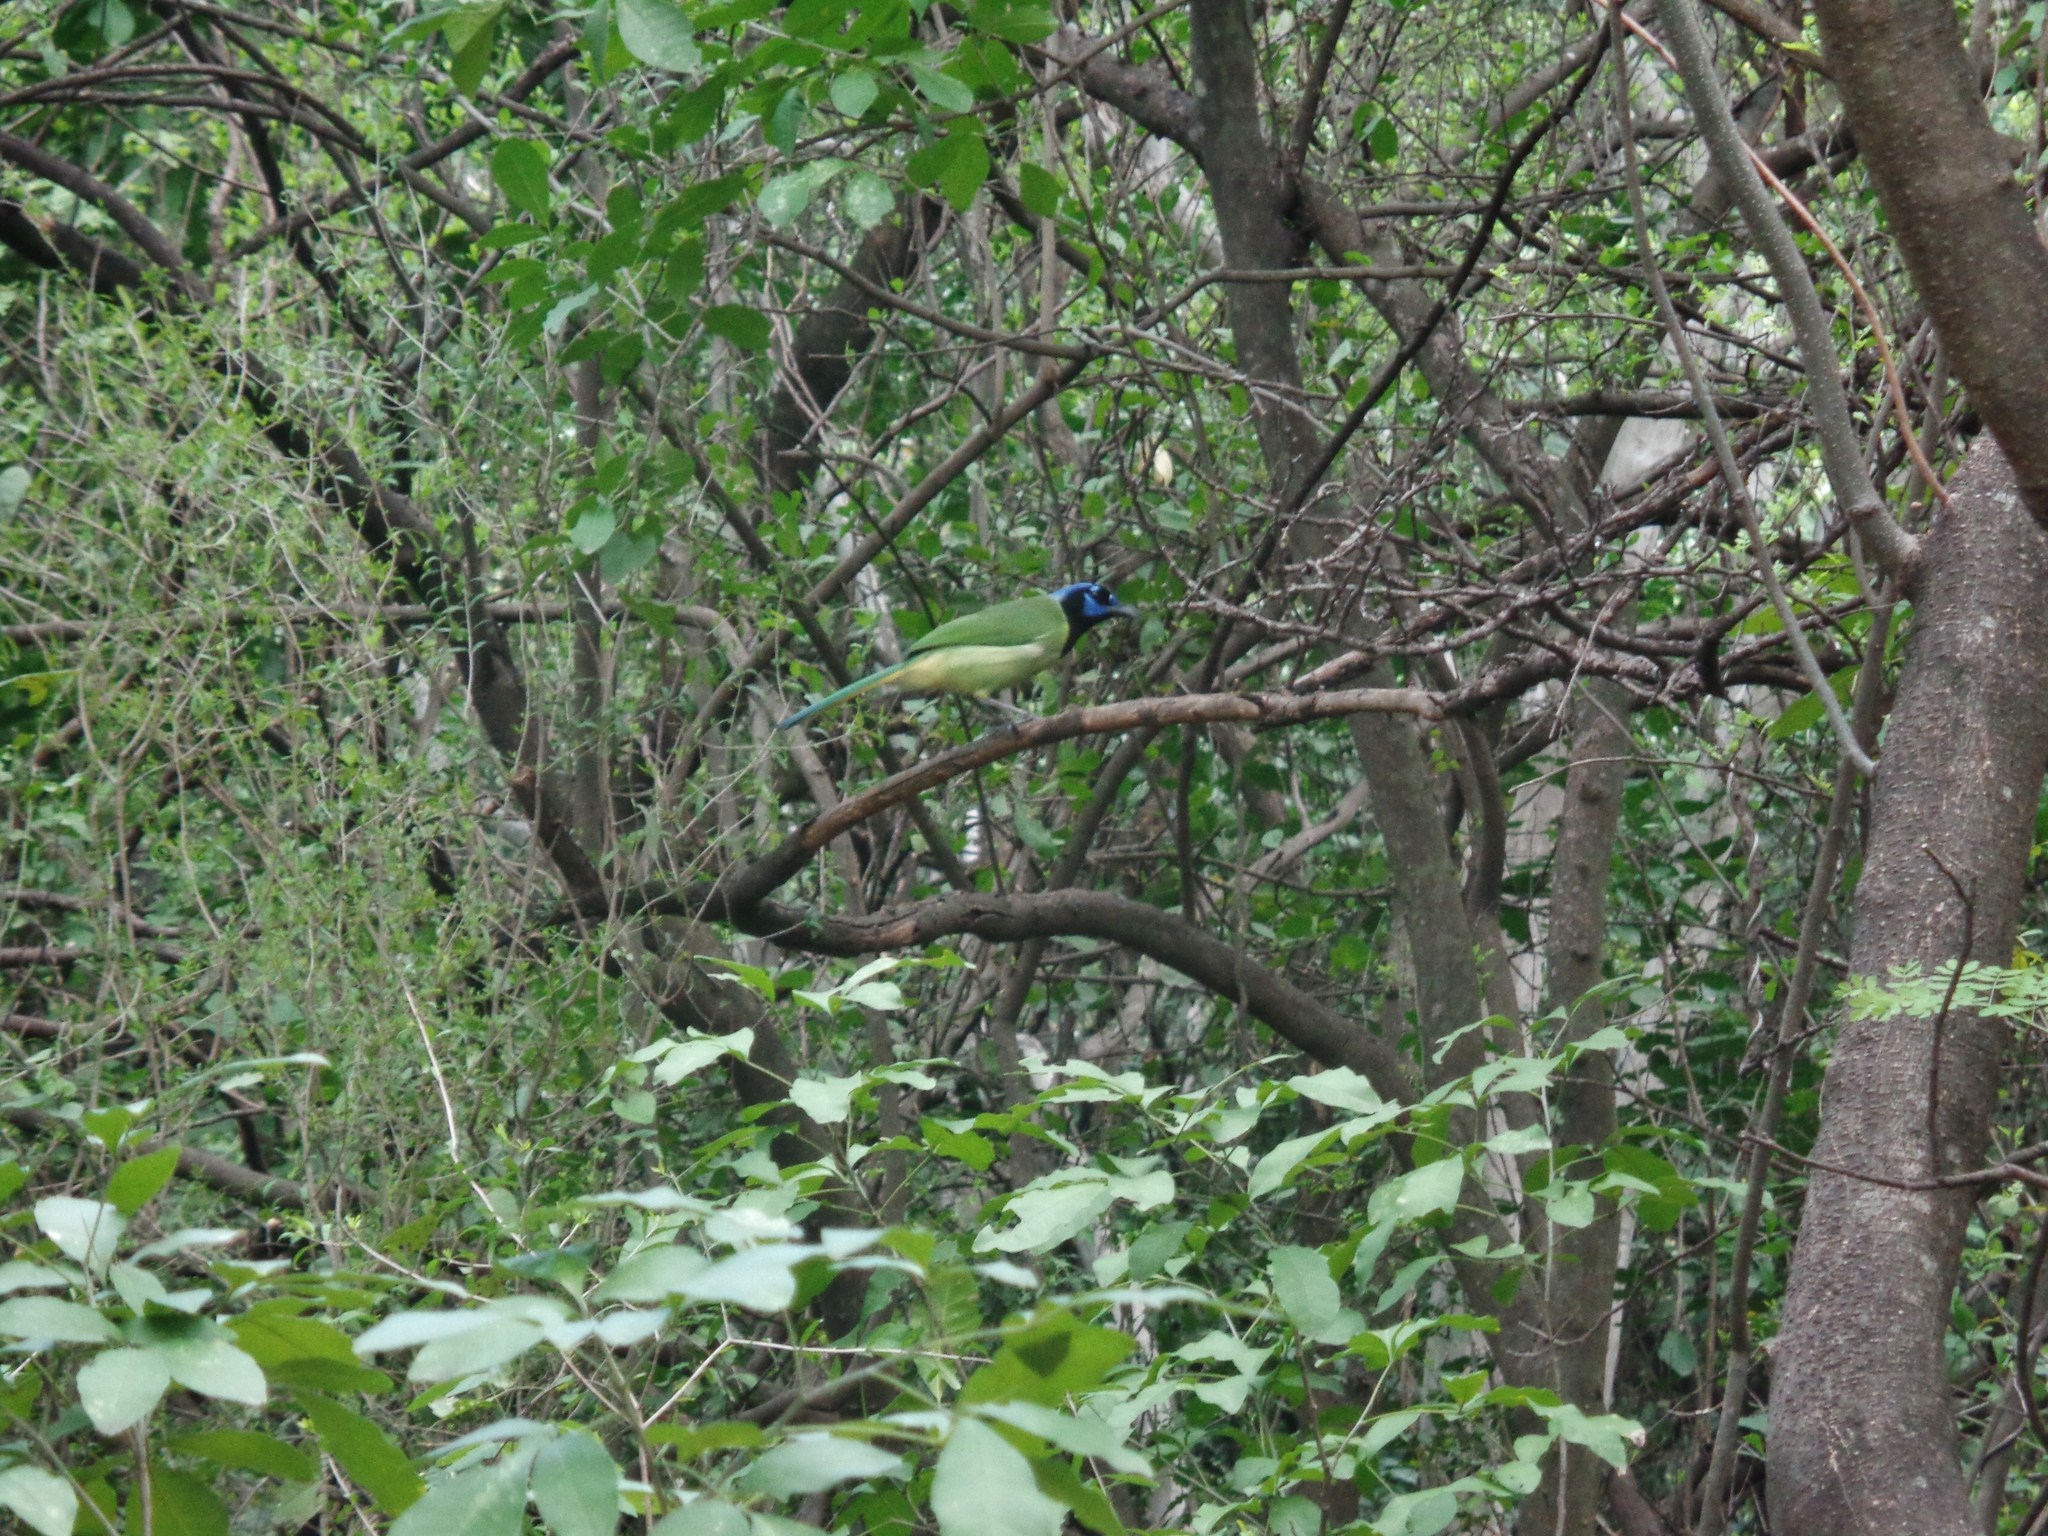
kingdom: Animalia
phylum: Chordata
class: Aves
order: Passeriformes
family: Corvidae
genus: Cyanocorax
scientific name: Cyanocorax yncas
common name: Green jay
